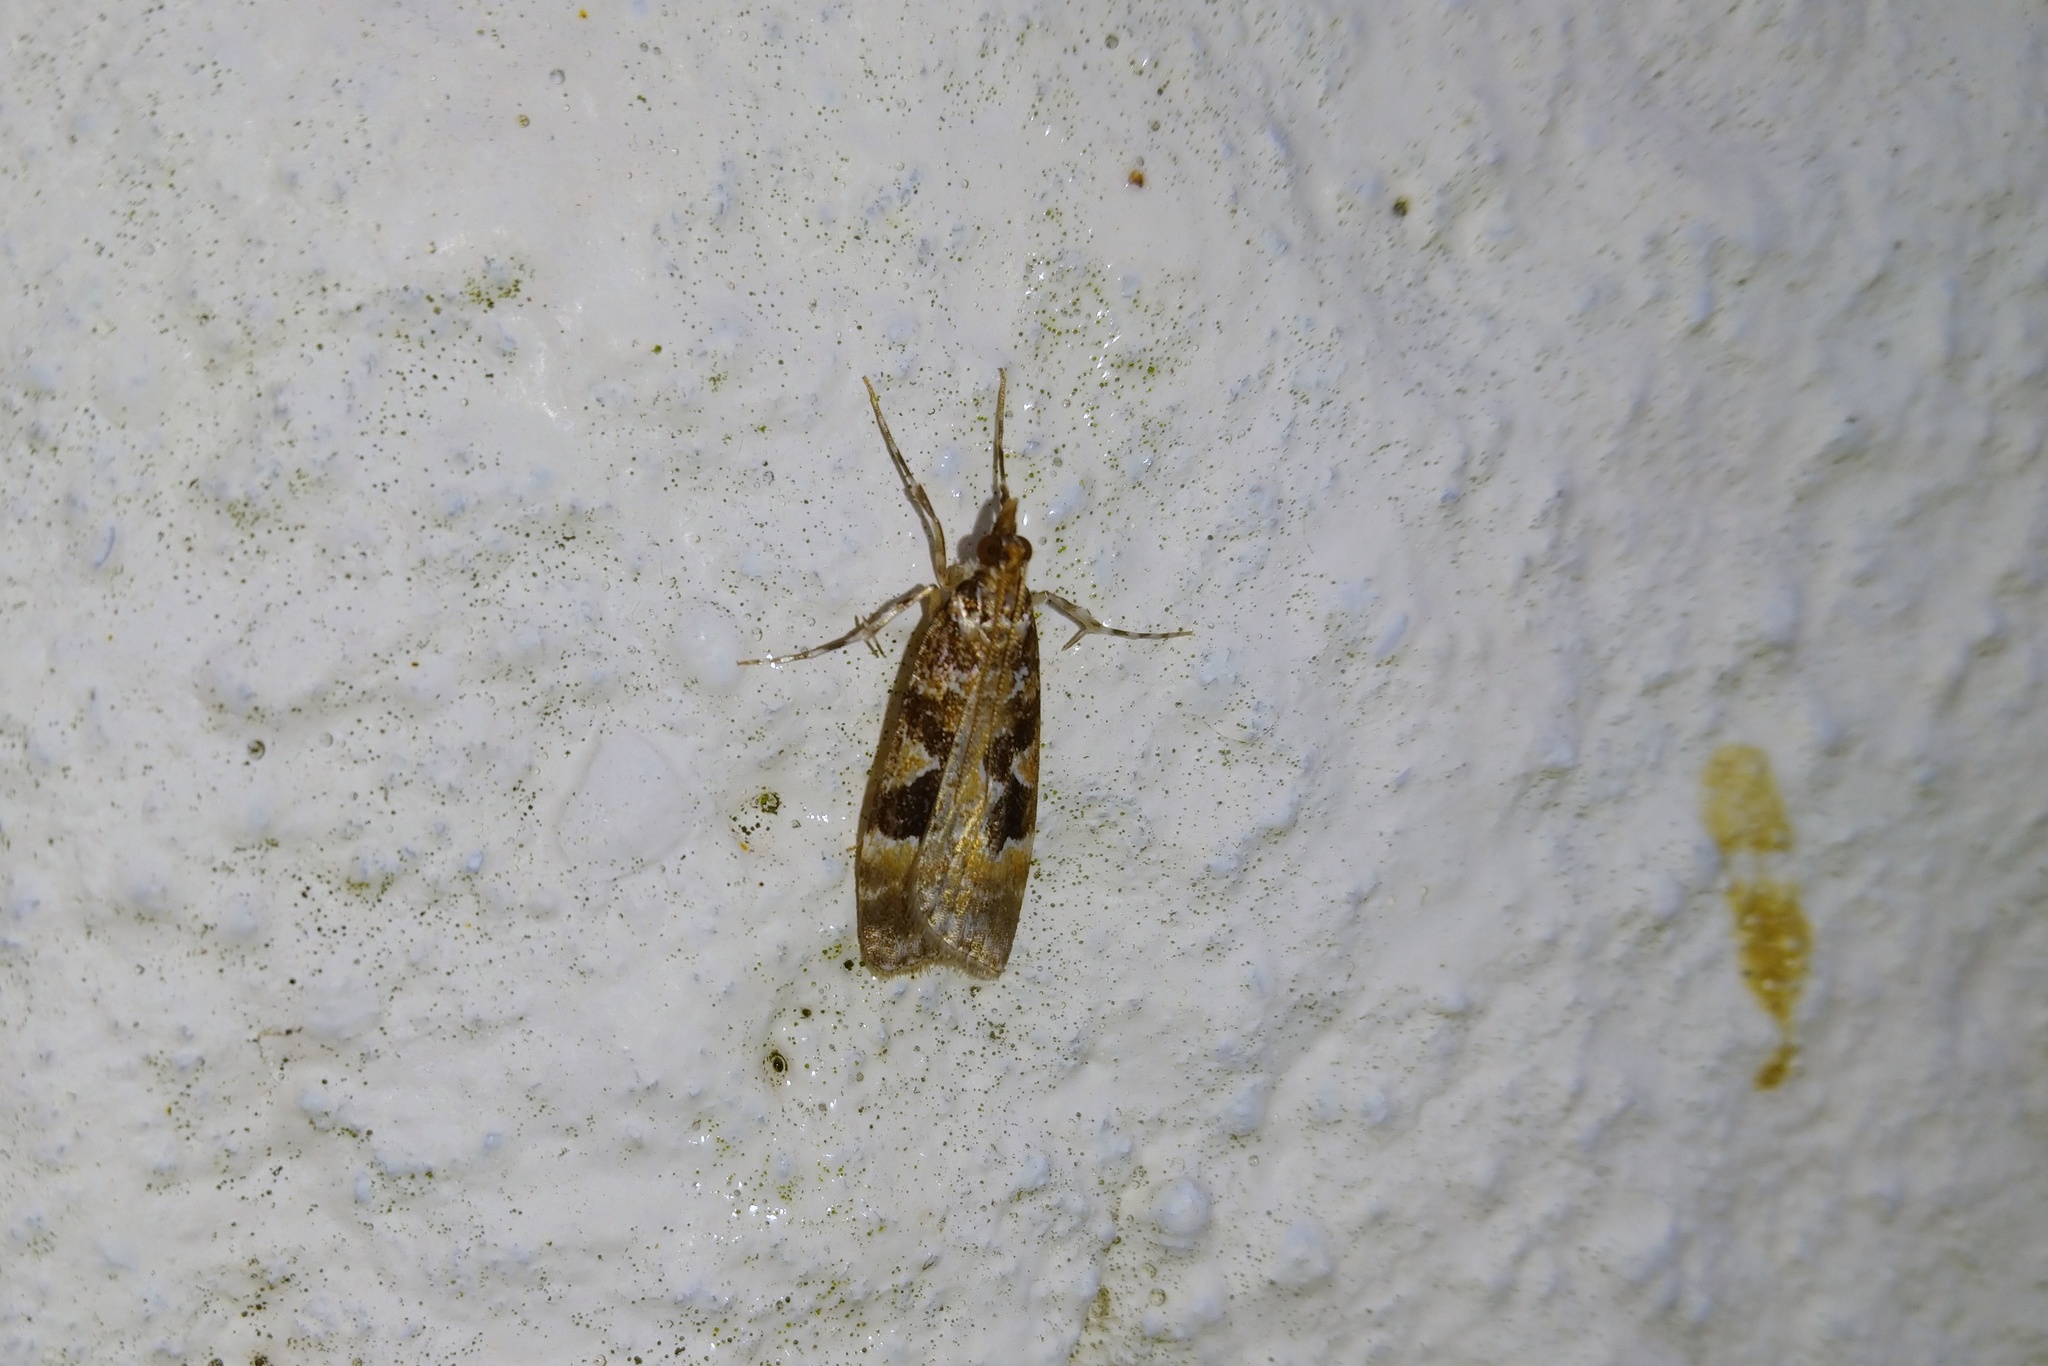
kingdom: Animalia
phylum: Arthropoda
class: Insecta
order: Lepidoptera
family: Crambidae
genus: Scoparia
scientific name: Scoparia ustimacula
